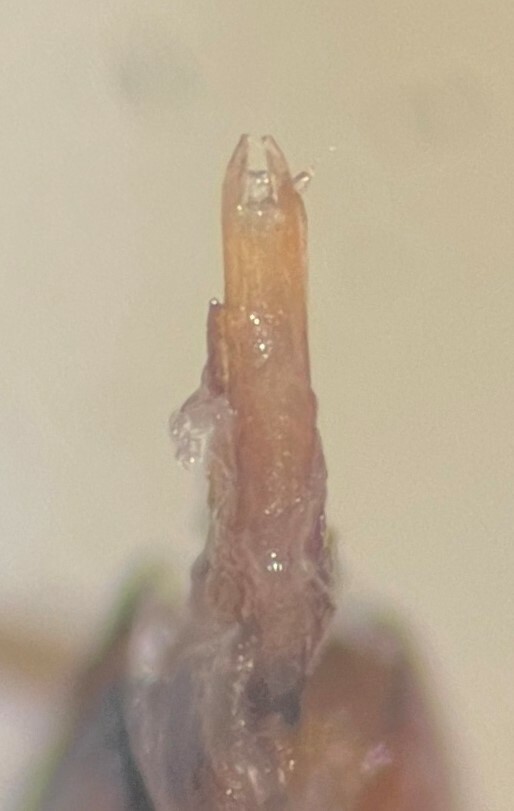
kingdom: Animalia
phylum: Arthropoda
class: Insecta
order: Coleoptera
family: Dytiscidae
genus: Heterosternuta
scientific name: Heterosternuta cocheconis
